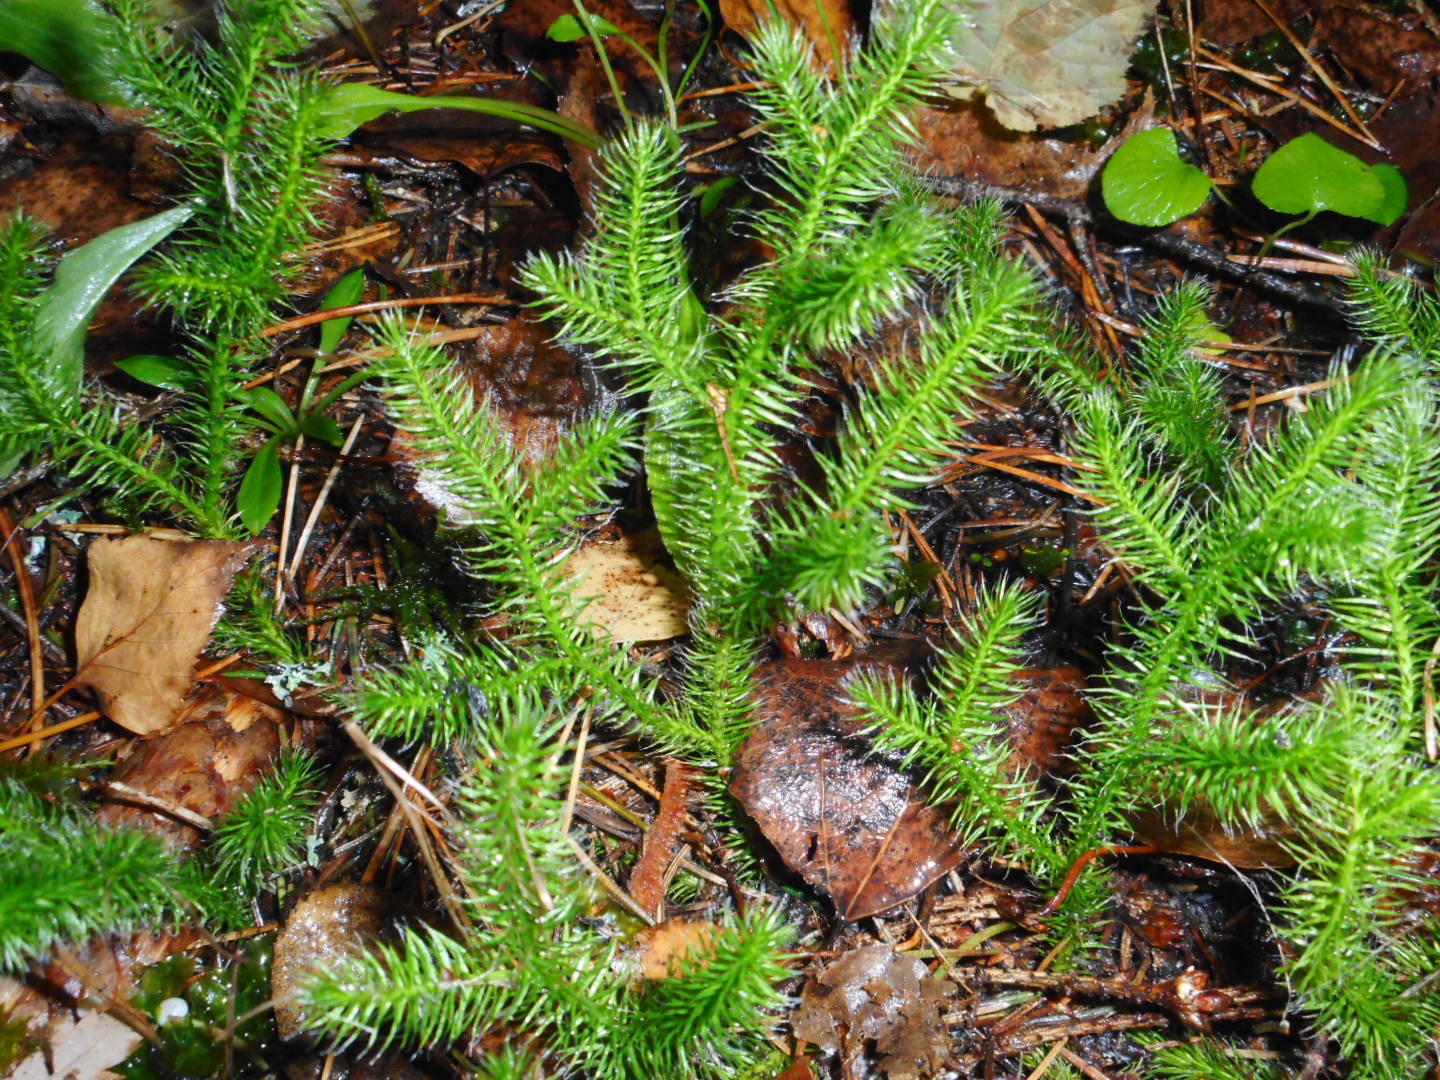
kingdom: Plantae
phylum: Tracheophyta
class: Lycopodiopsida
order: Lycopodiales
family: Lycopodiaceae
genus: Lycopodium
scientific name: Lycopodium clavatum
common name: Stag's-horn clubmoss
